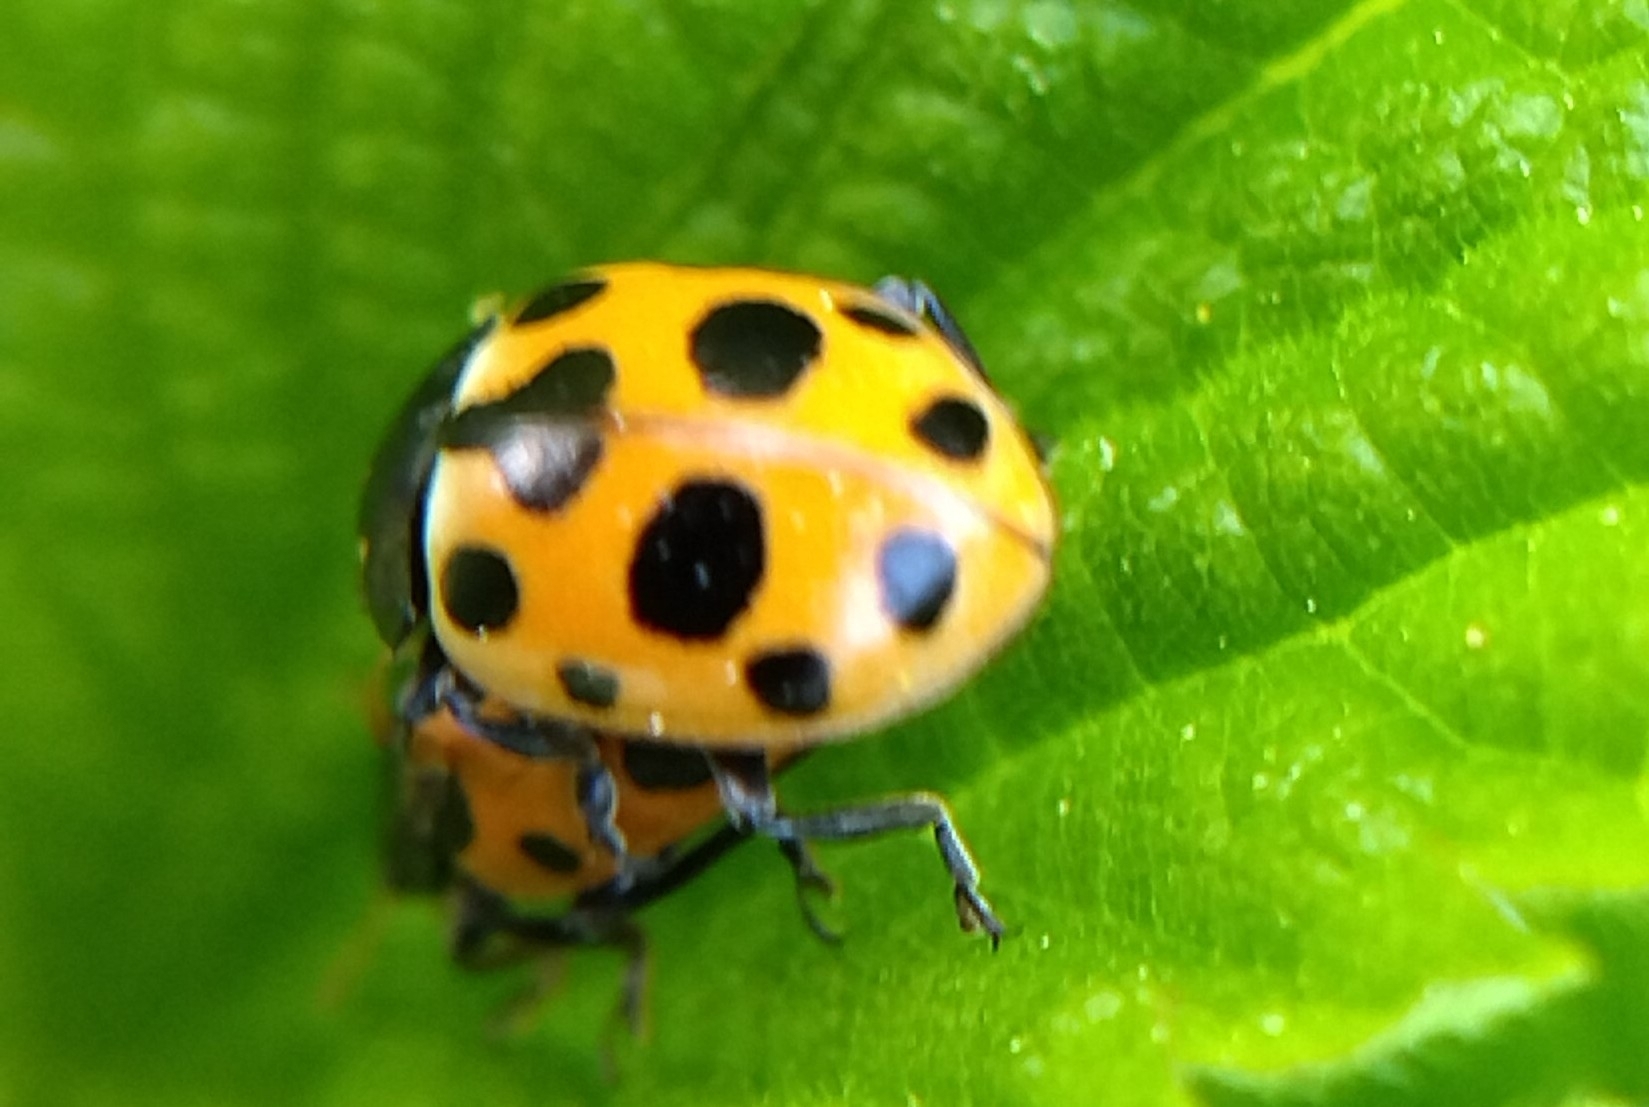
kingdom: Animalia
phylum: Arthropoda
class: Insecta
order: Coleoptera
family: Coccinellidae
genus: Ceratomegilla
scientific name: Ceratomegilla notata
